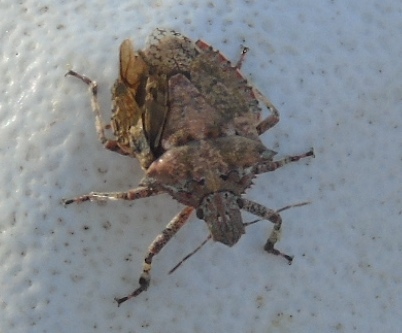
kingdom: Animalia
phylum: Arthropoda
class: Insecta
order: Hemiptera
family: Pentatomidae
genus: Brochymena
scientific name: Brochymena
